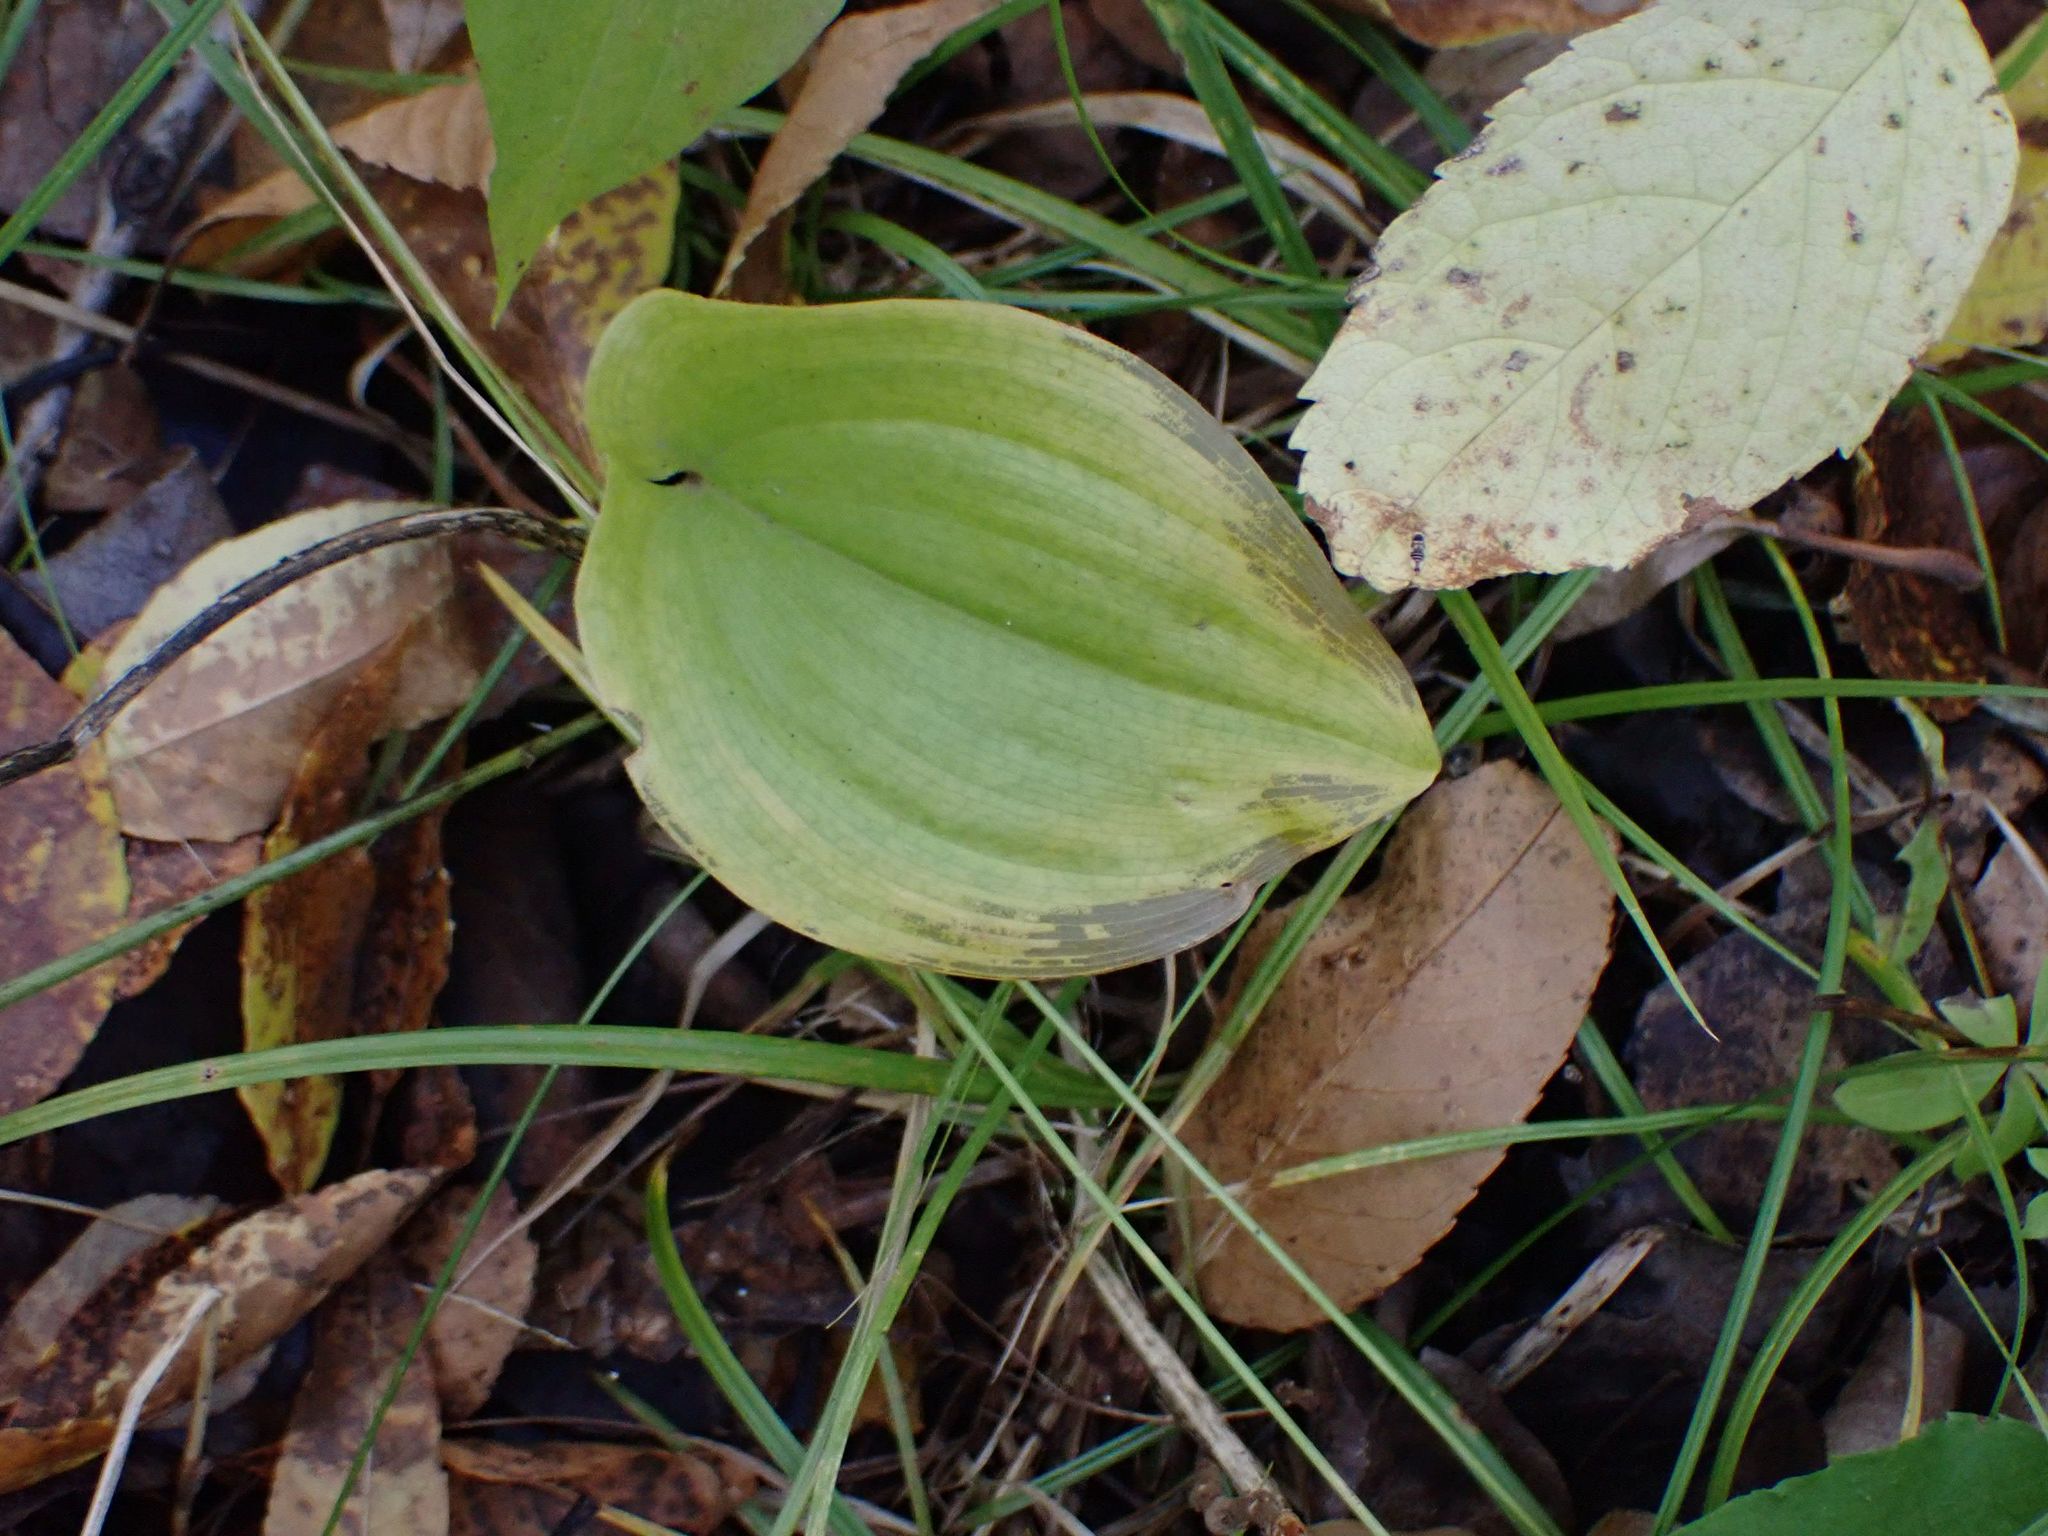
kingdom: Plantae
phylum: Tracheophyta
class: Liliopsida
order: Asparagales
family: Asparagaceae
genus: Maianthemum
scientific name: Maianthemum canadense
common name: False lily-of-the-valley
